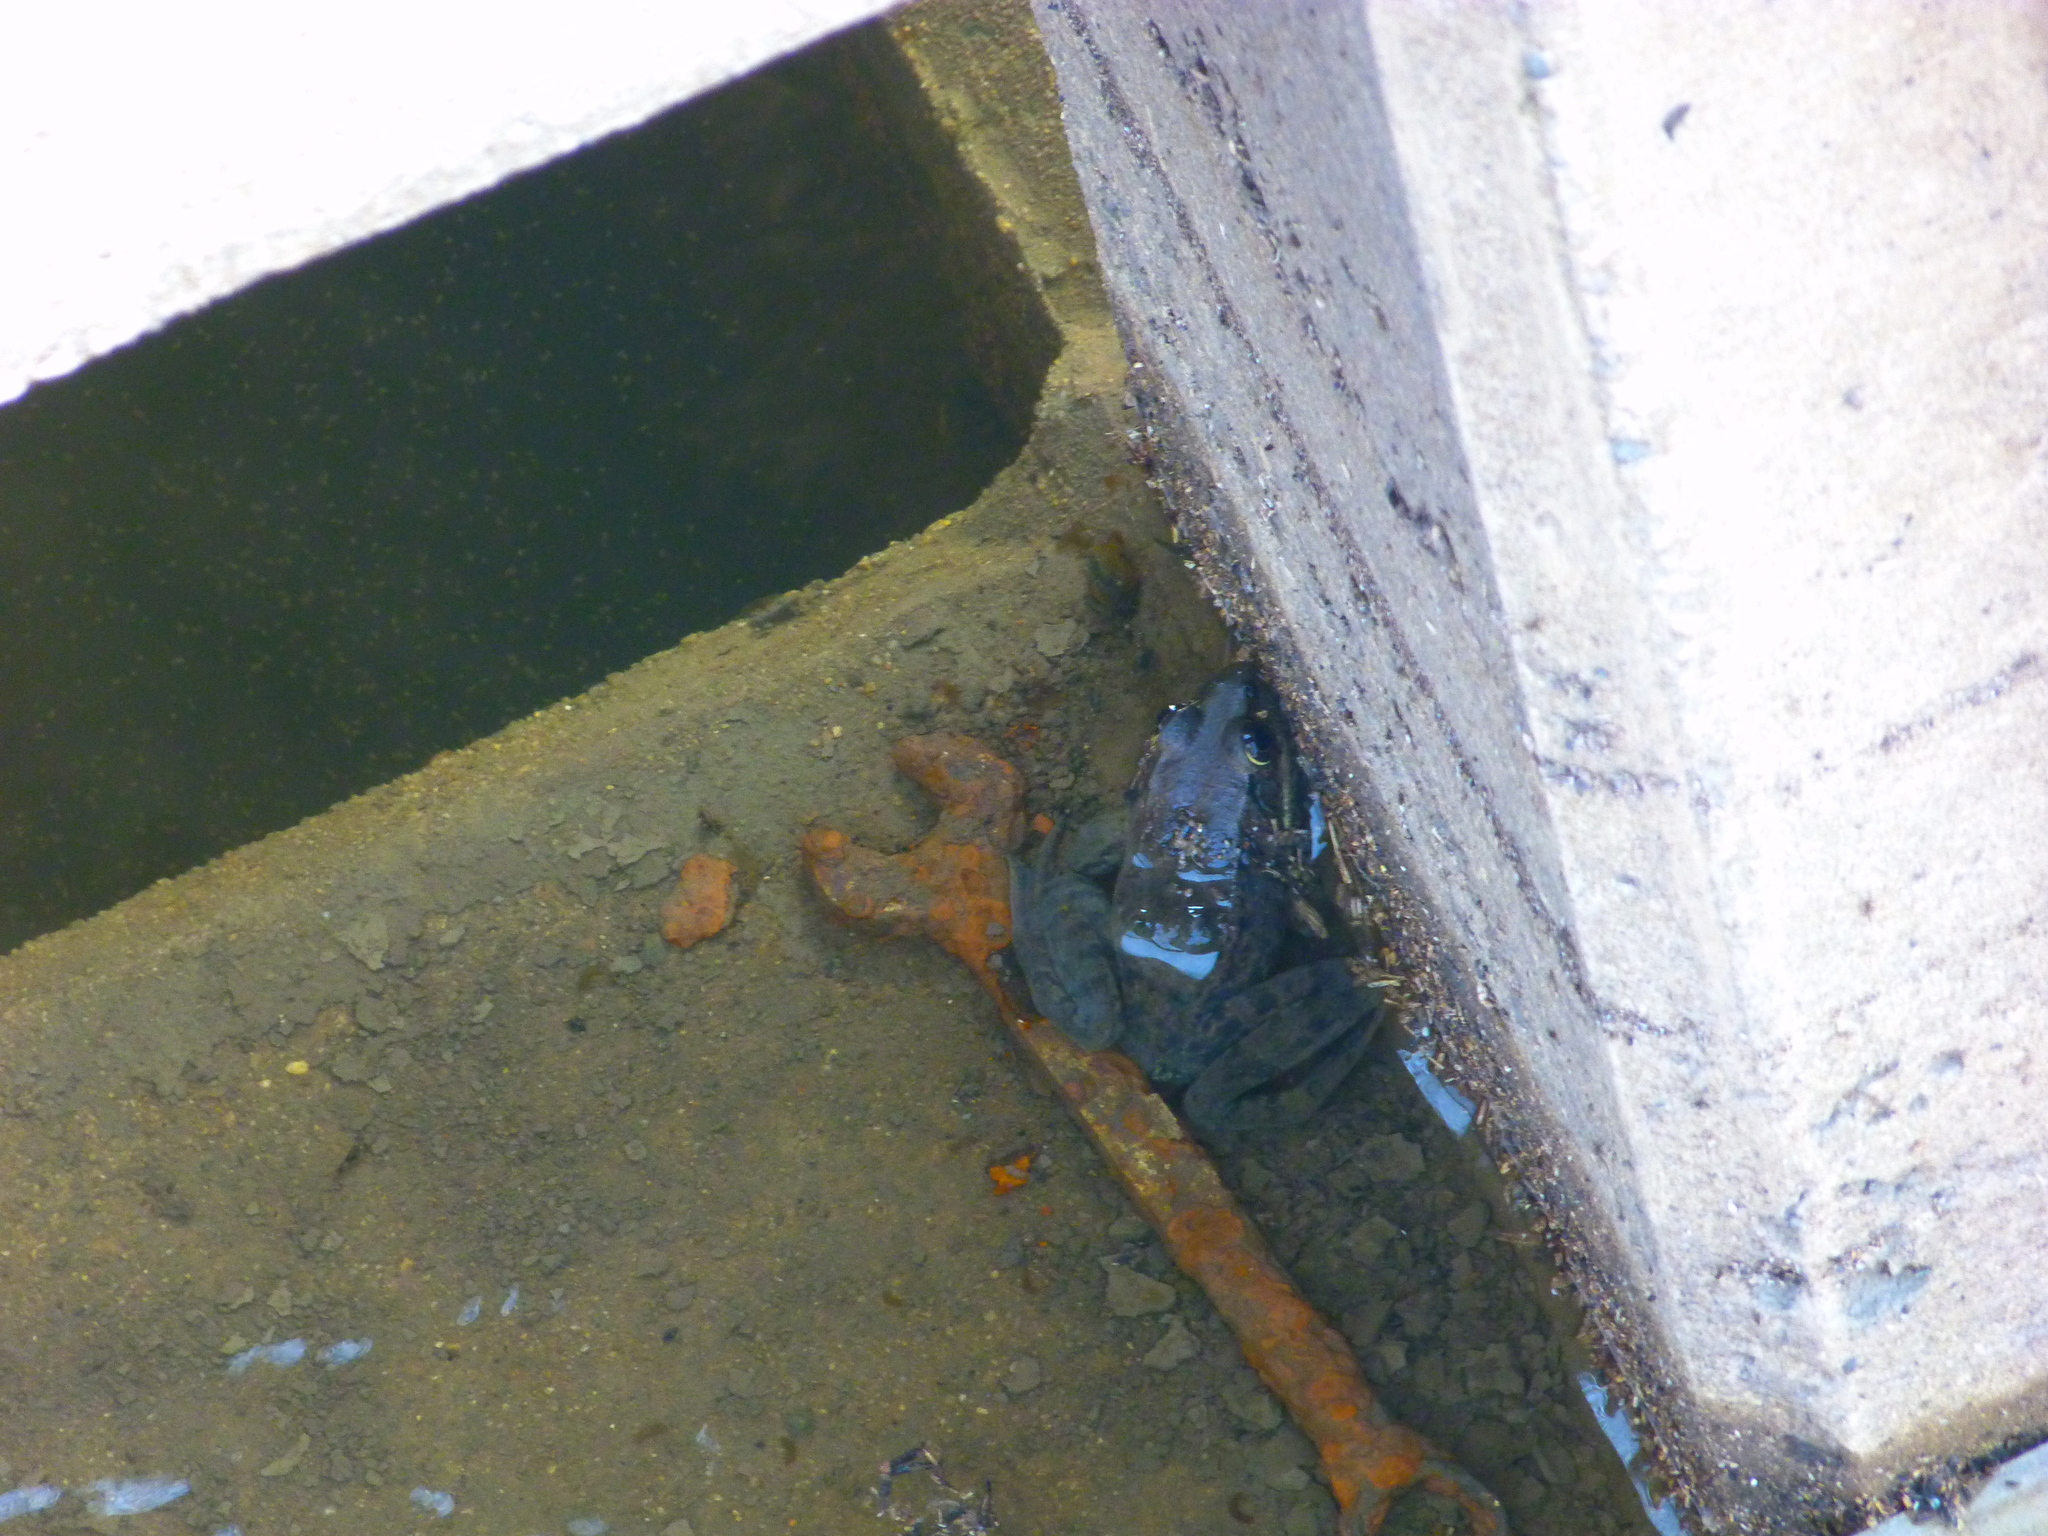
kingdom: Animalia
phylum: Chordata
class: Amphibia
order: Anura
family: Ranidae
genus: Rana
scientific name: Rana draytonii
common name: California red-legged frog
